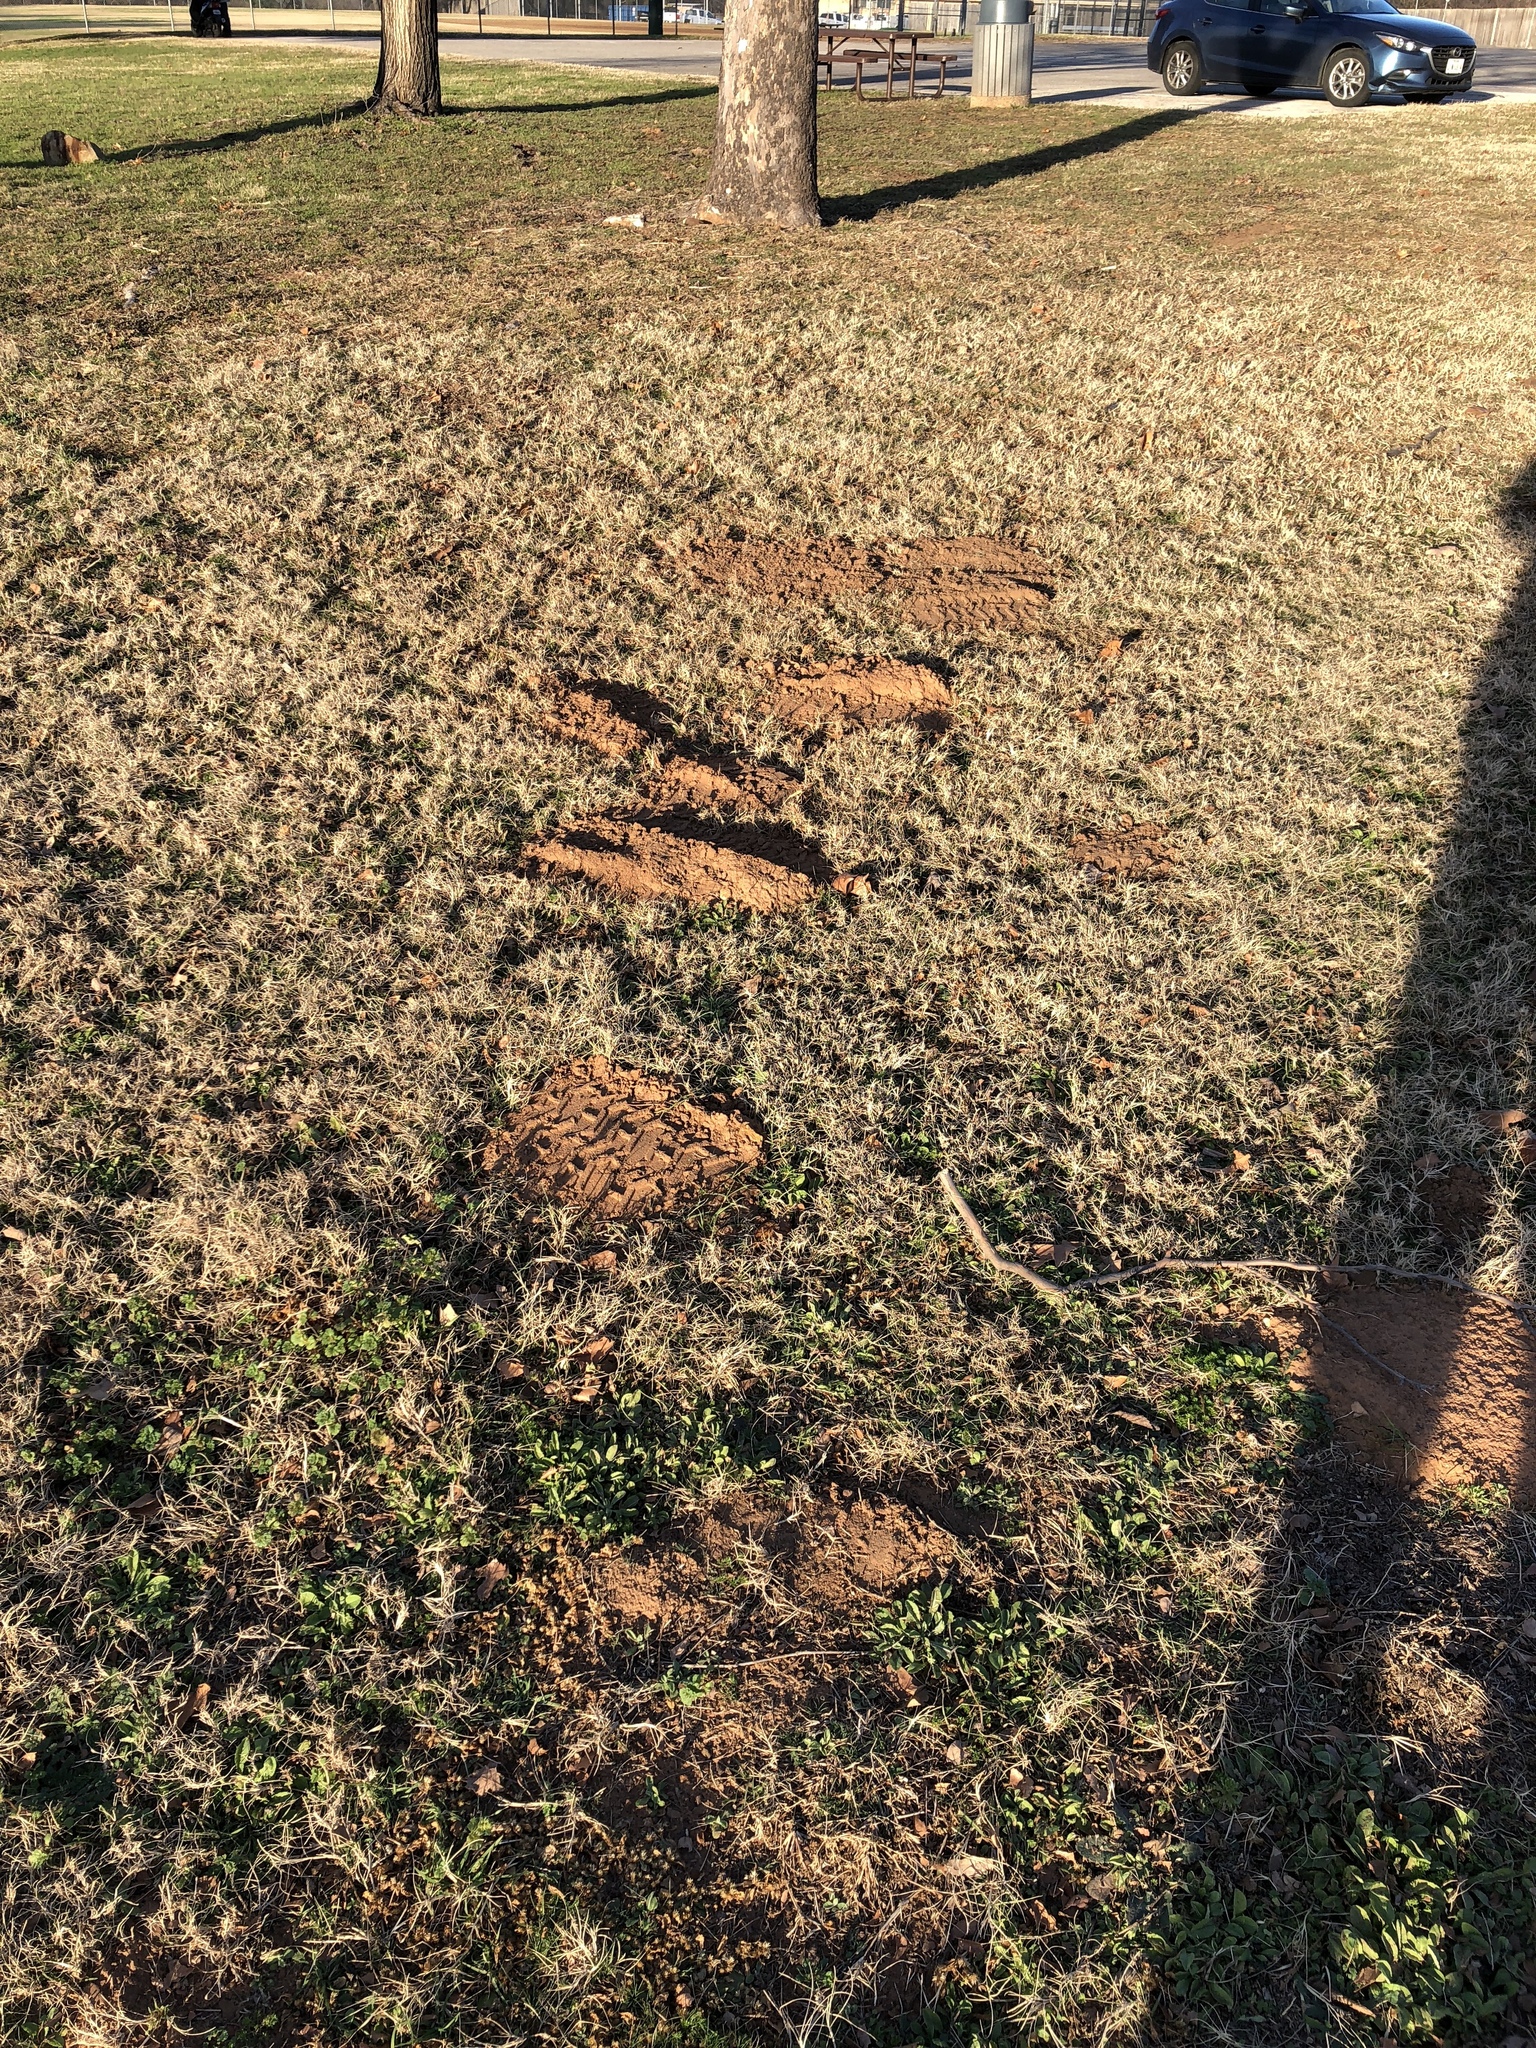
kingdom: Animalia
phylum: Chordata
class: Mammalia
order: Rodentia
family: Geomyidae
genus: Geomys
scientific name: Geomys bursarius
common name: Plains pocket gopher
